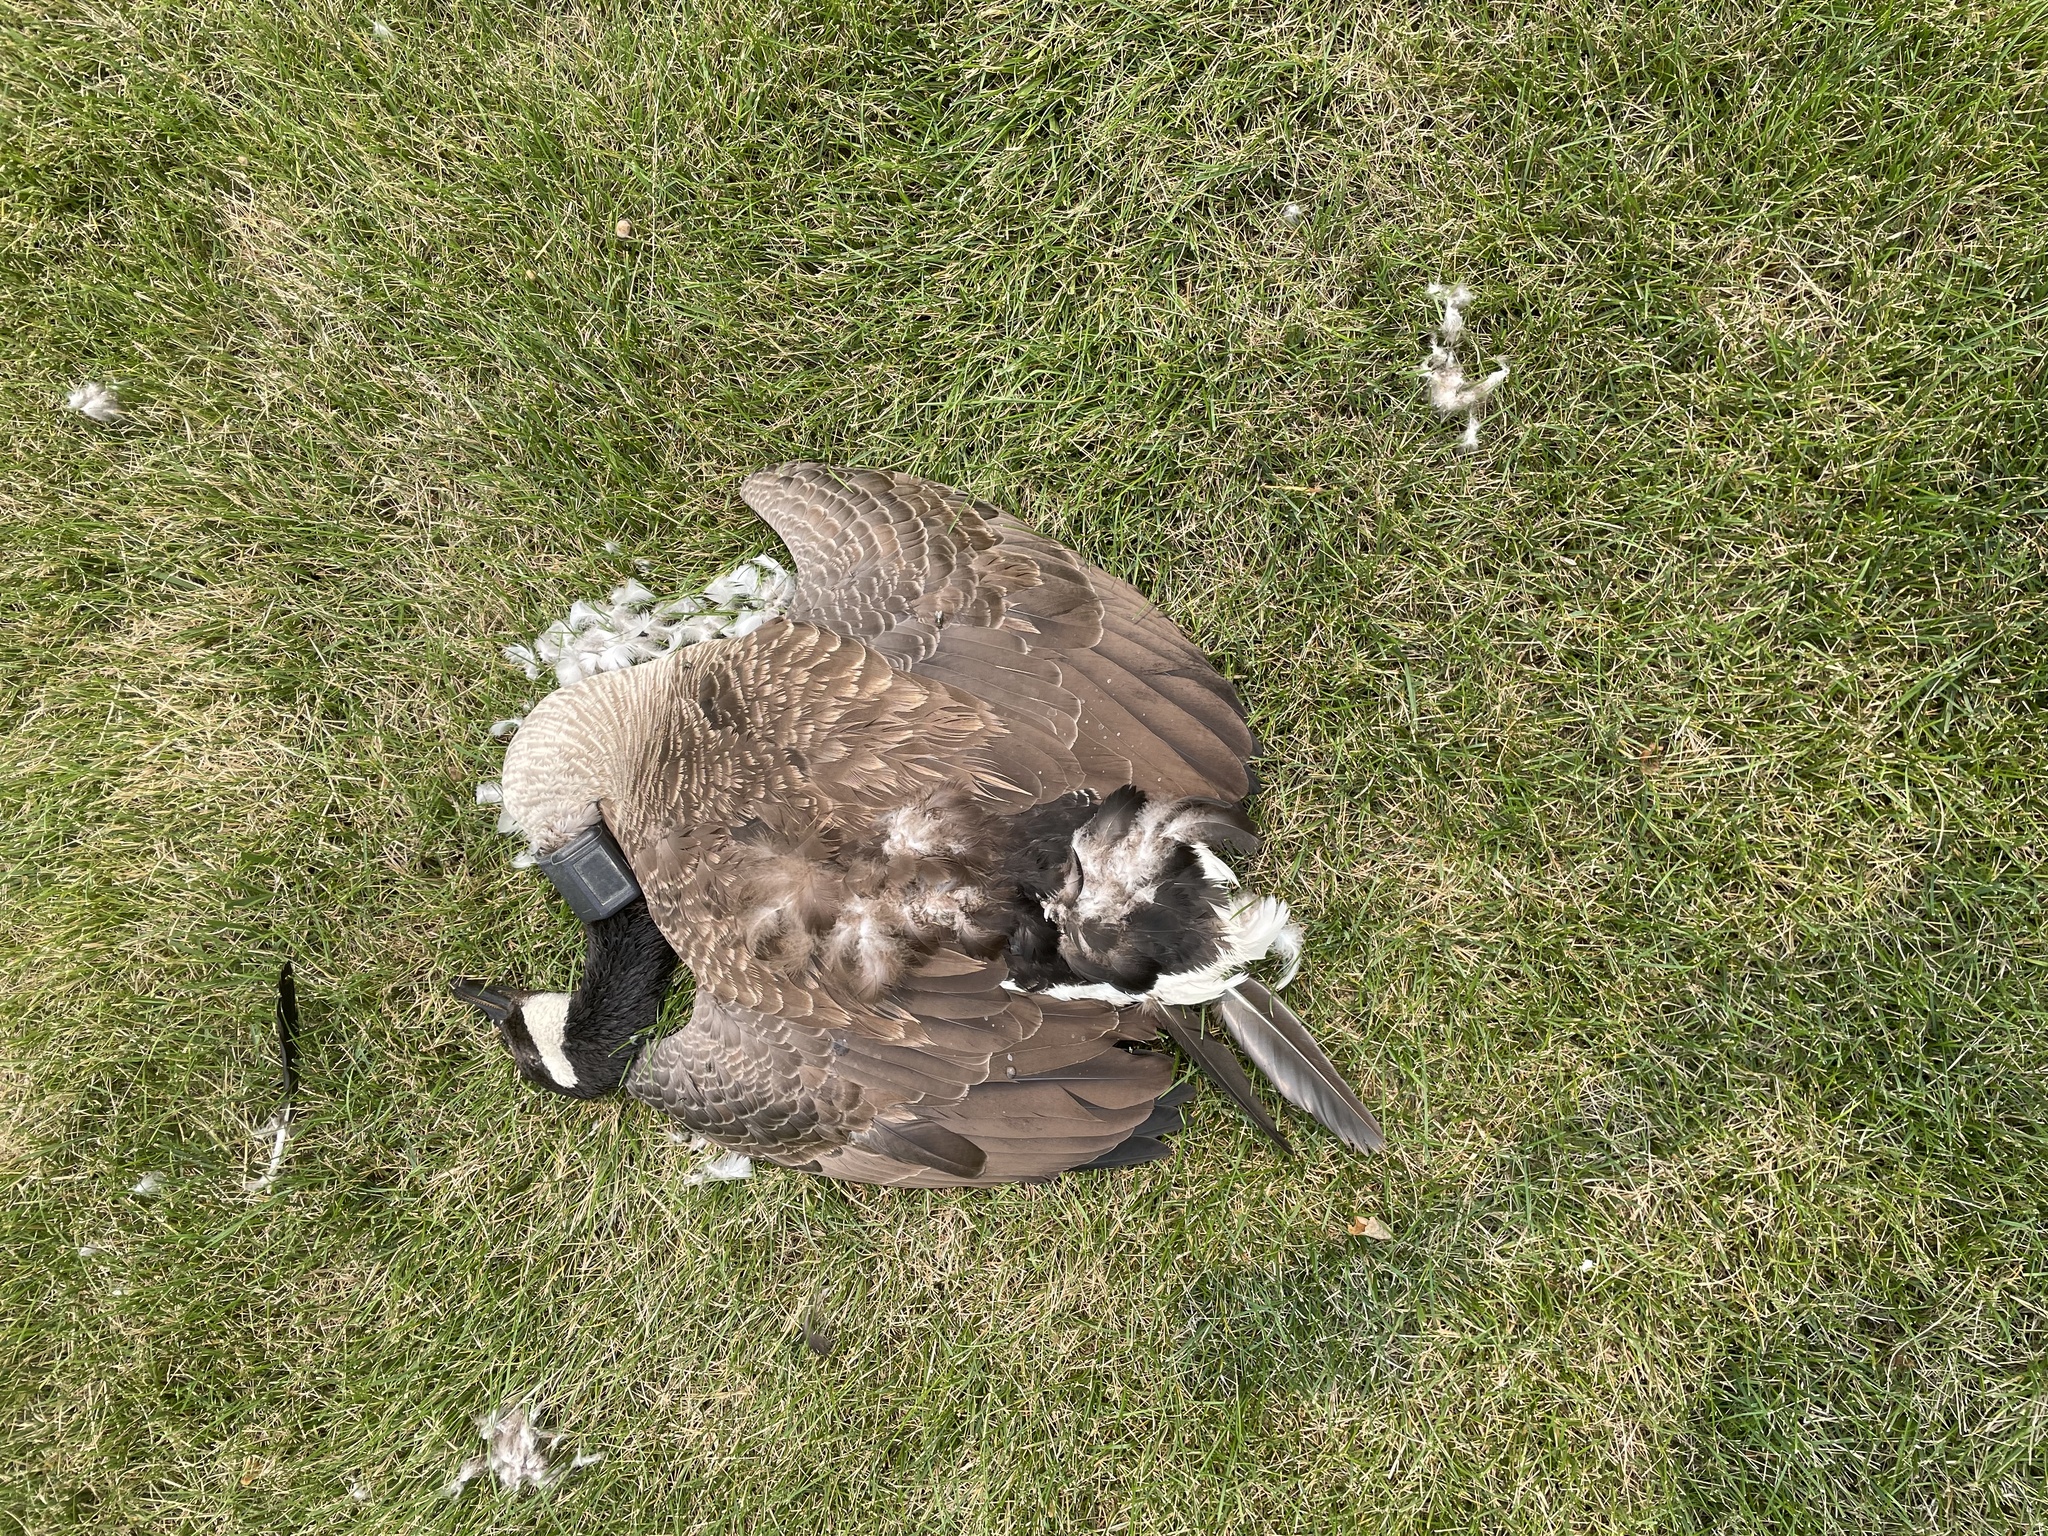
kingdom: Animalia
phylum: Chordata
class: Aves
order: Anseriformes
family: Anatidae
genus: Branta
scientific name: Branta canadensis
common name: Canada goose
